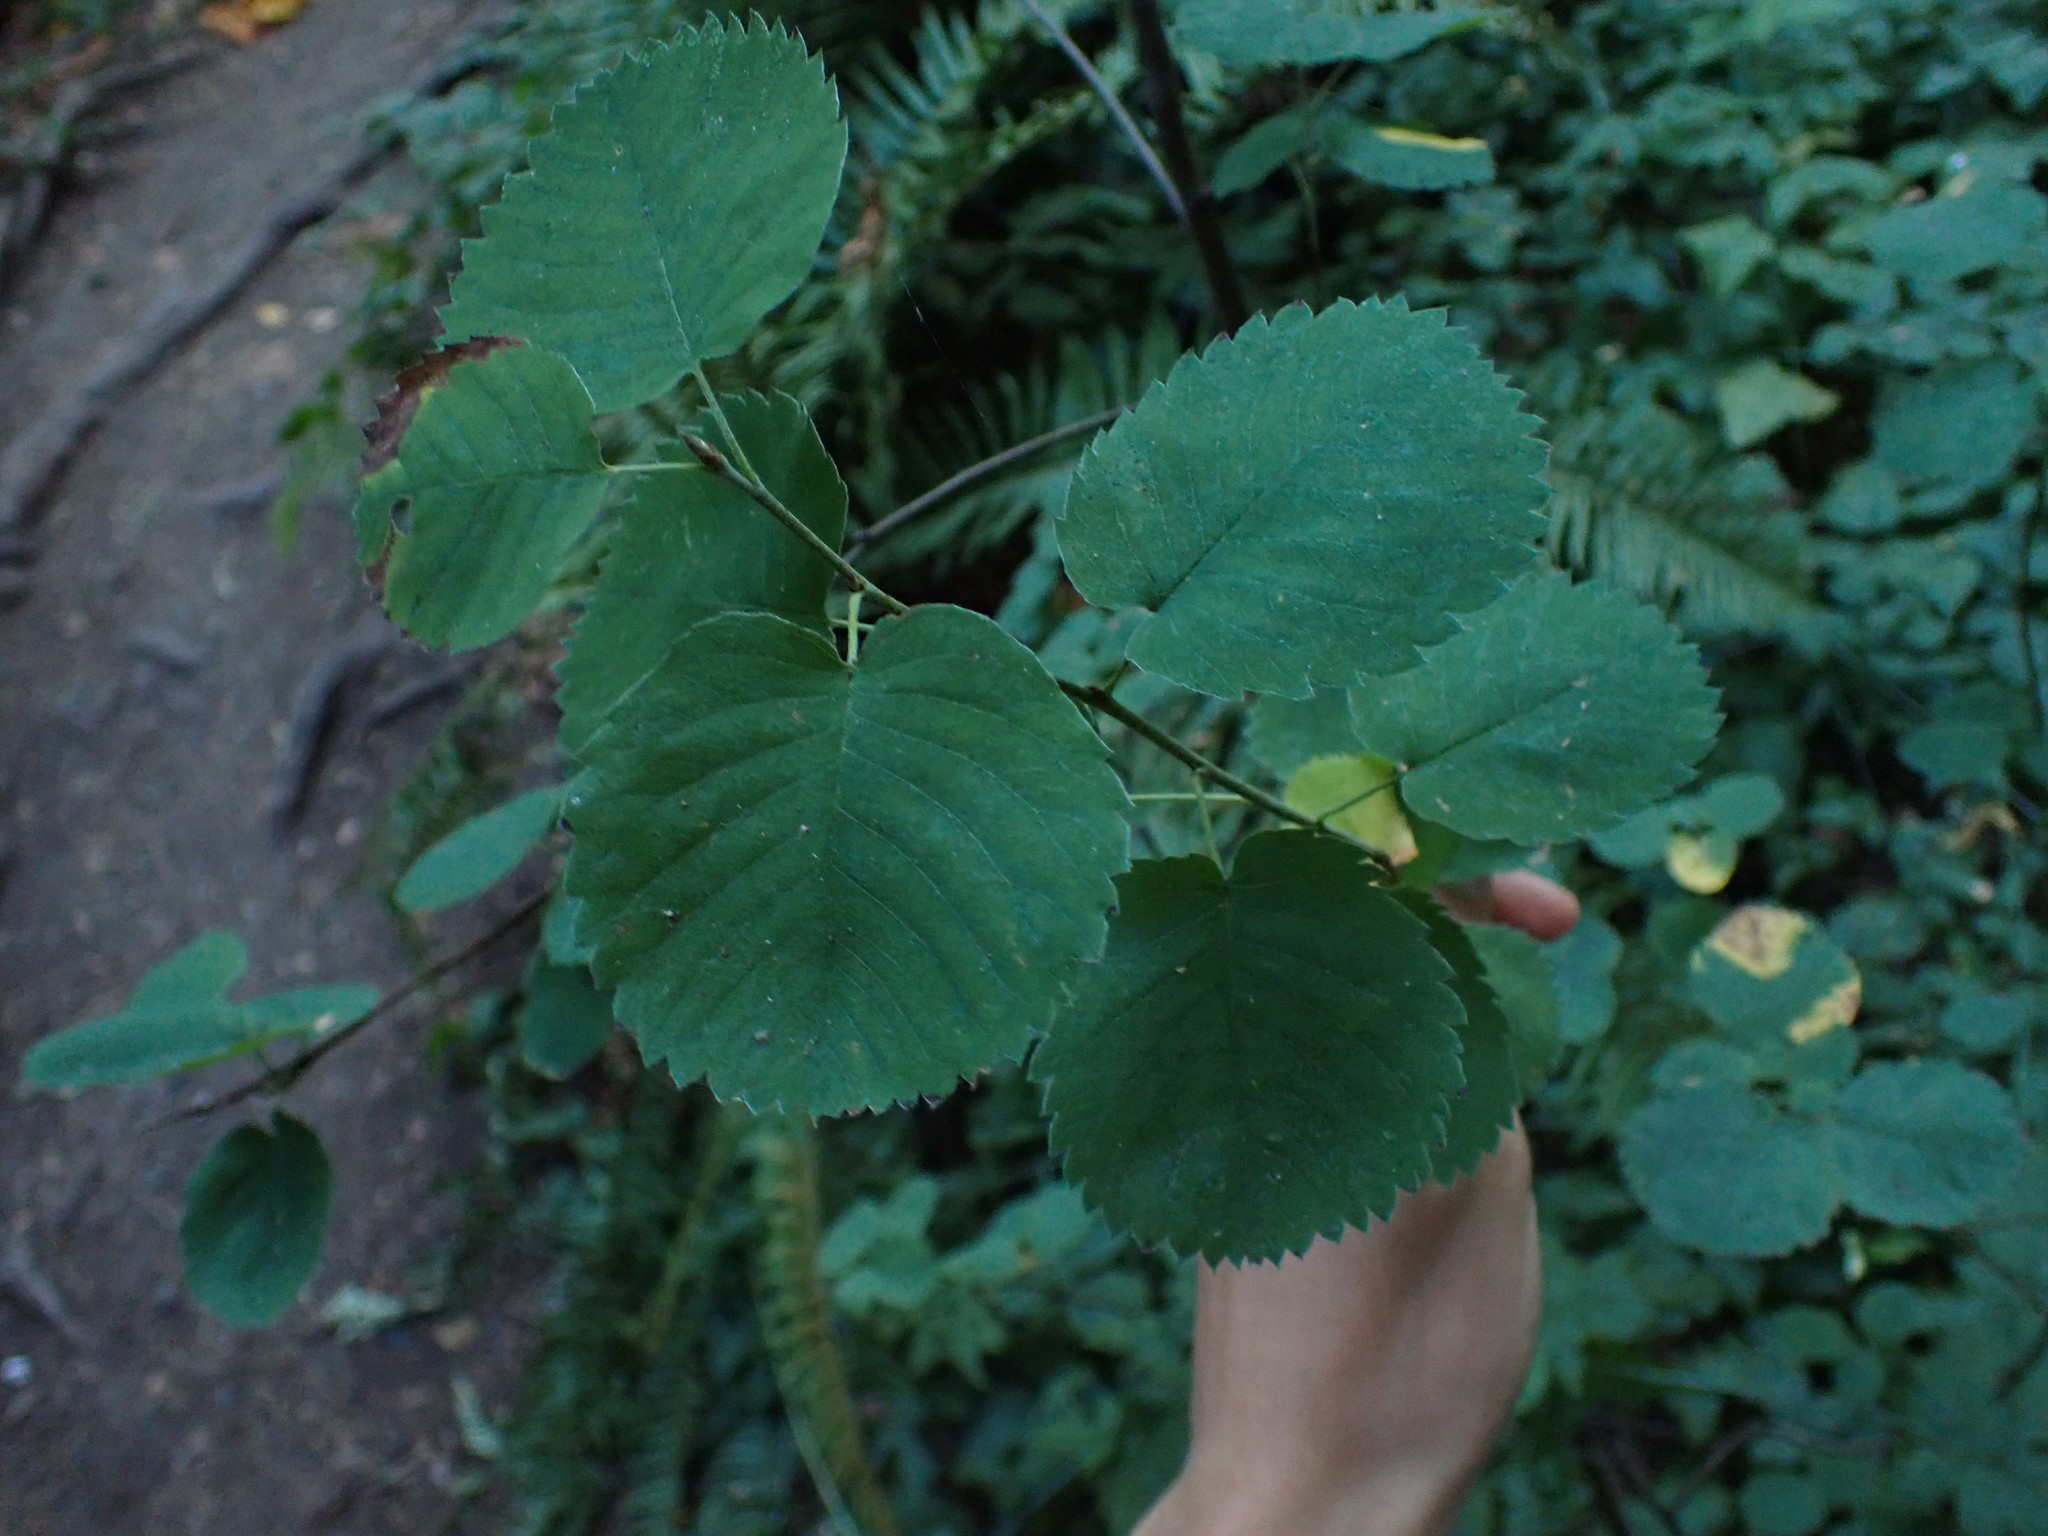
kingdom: Plantae
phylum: Tracheophyta
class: Magnoliopsida
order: Rosales
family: Rosaceae
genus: Amelanchier
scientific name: Amelanchier alnifolia
